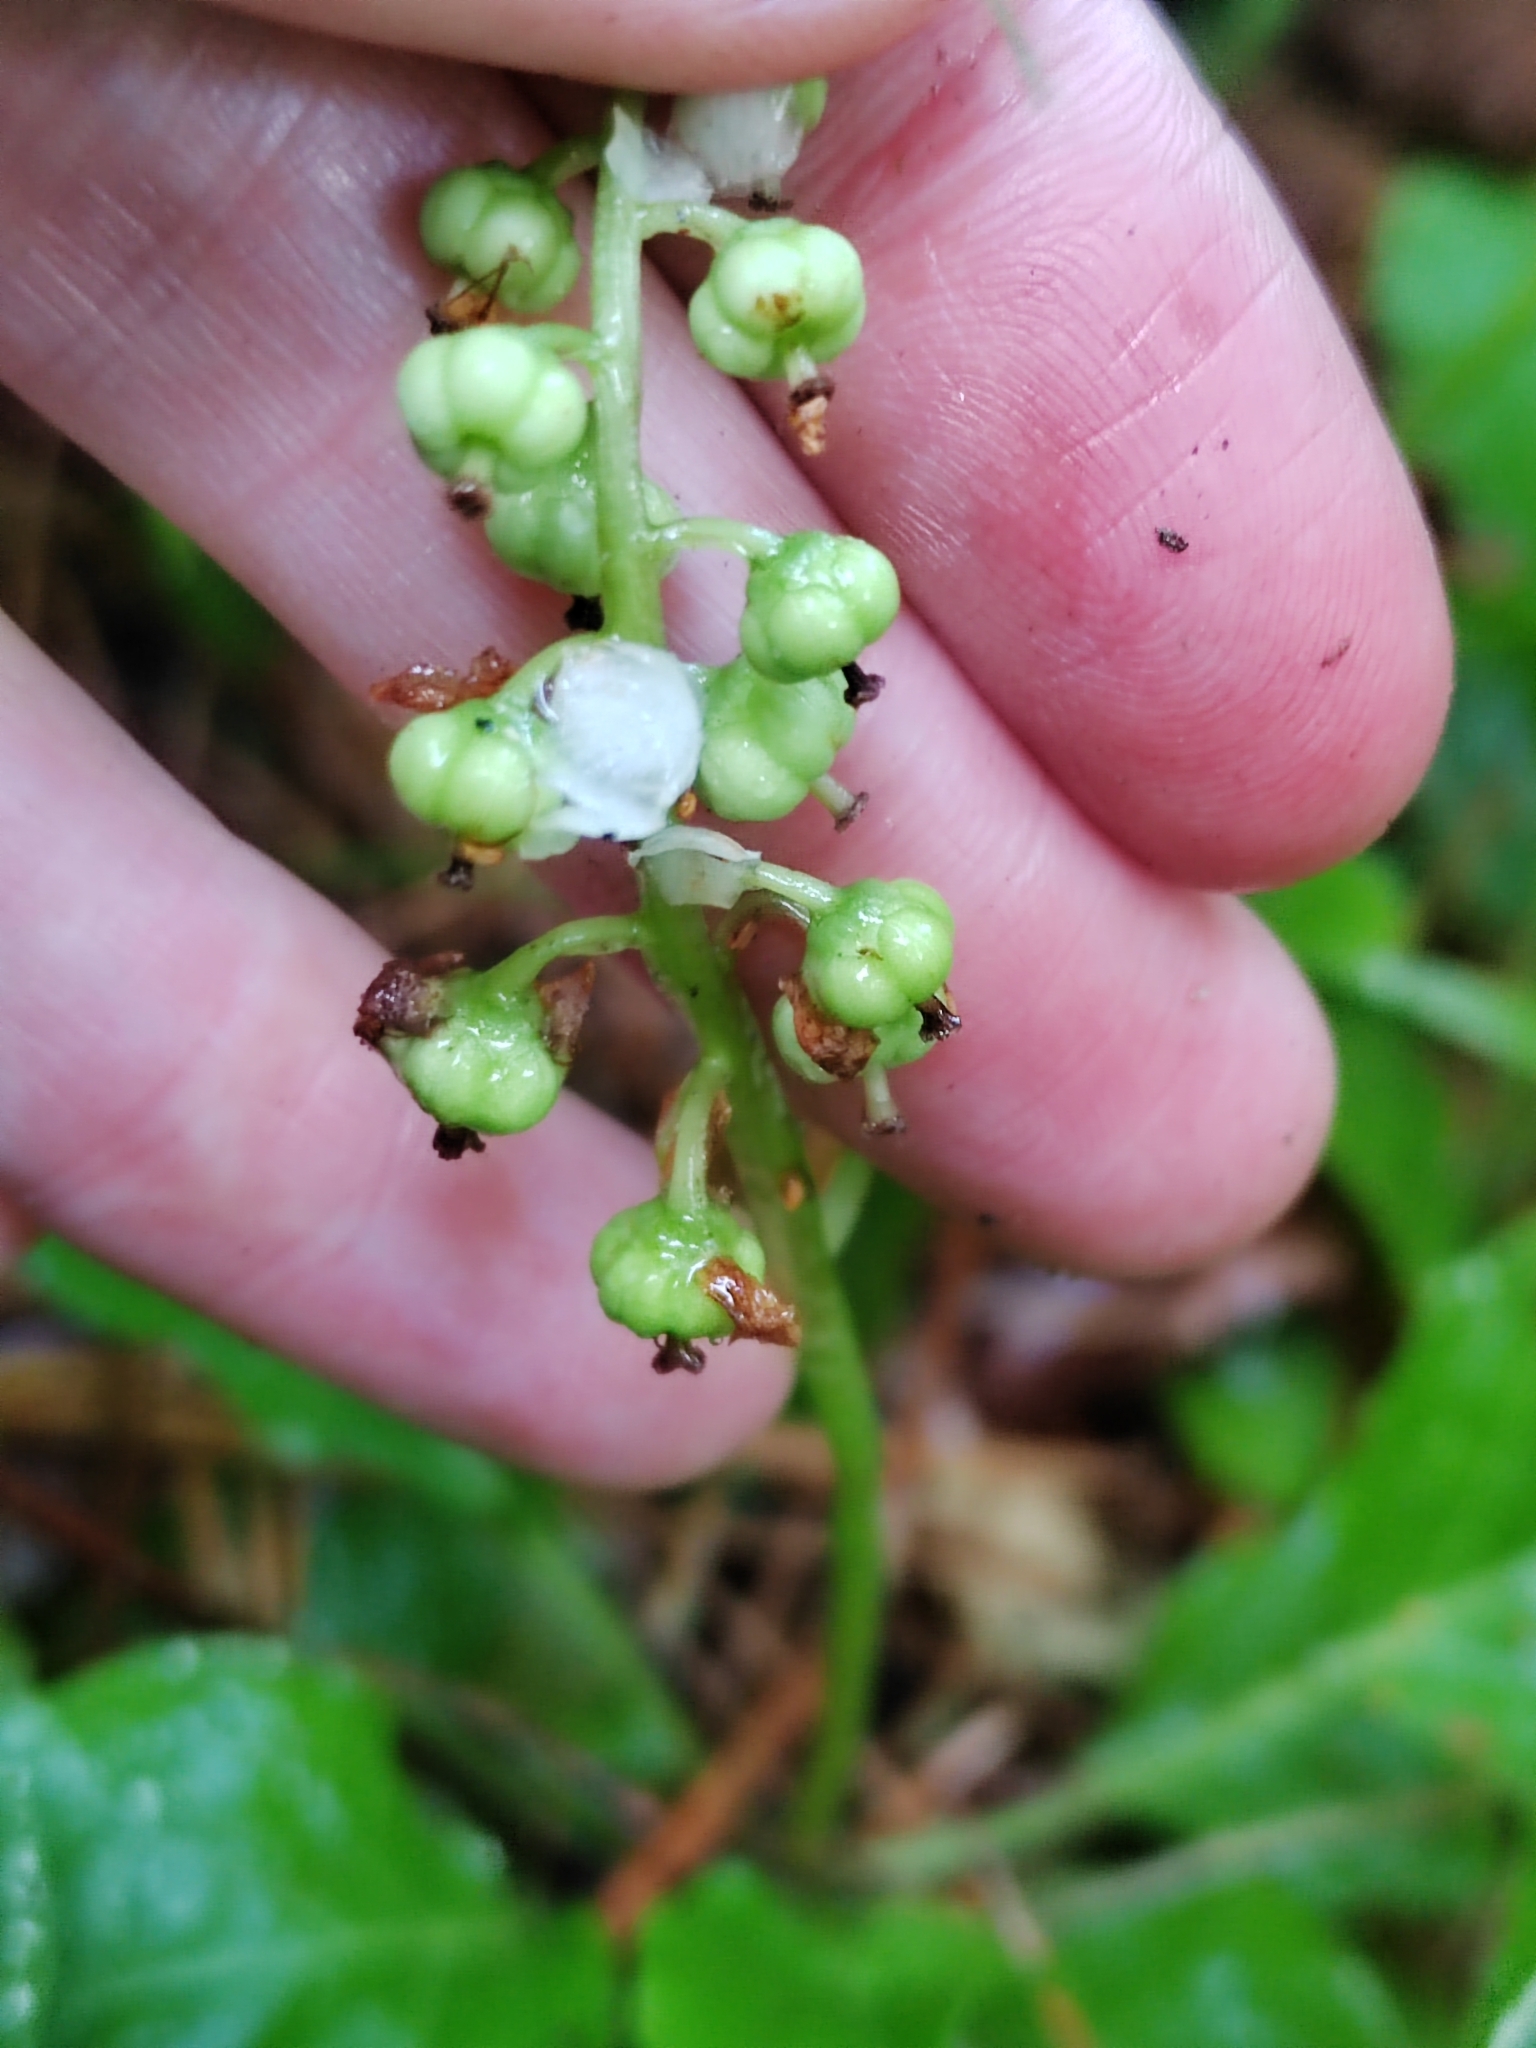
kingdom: Plantae
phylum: Tracheophyta
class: Magnoliopsida
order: Ericales
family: Ericaceae
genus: Pyrola
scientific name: Pyrola minor
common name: Common wintergreen
